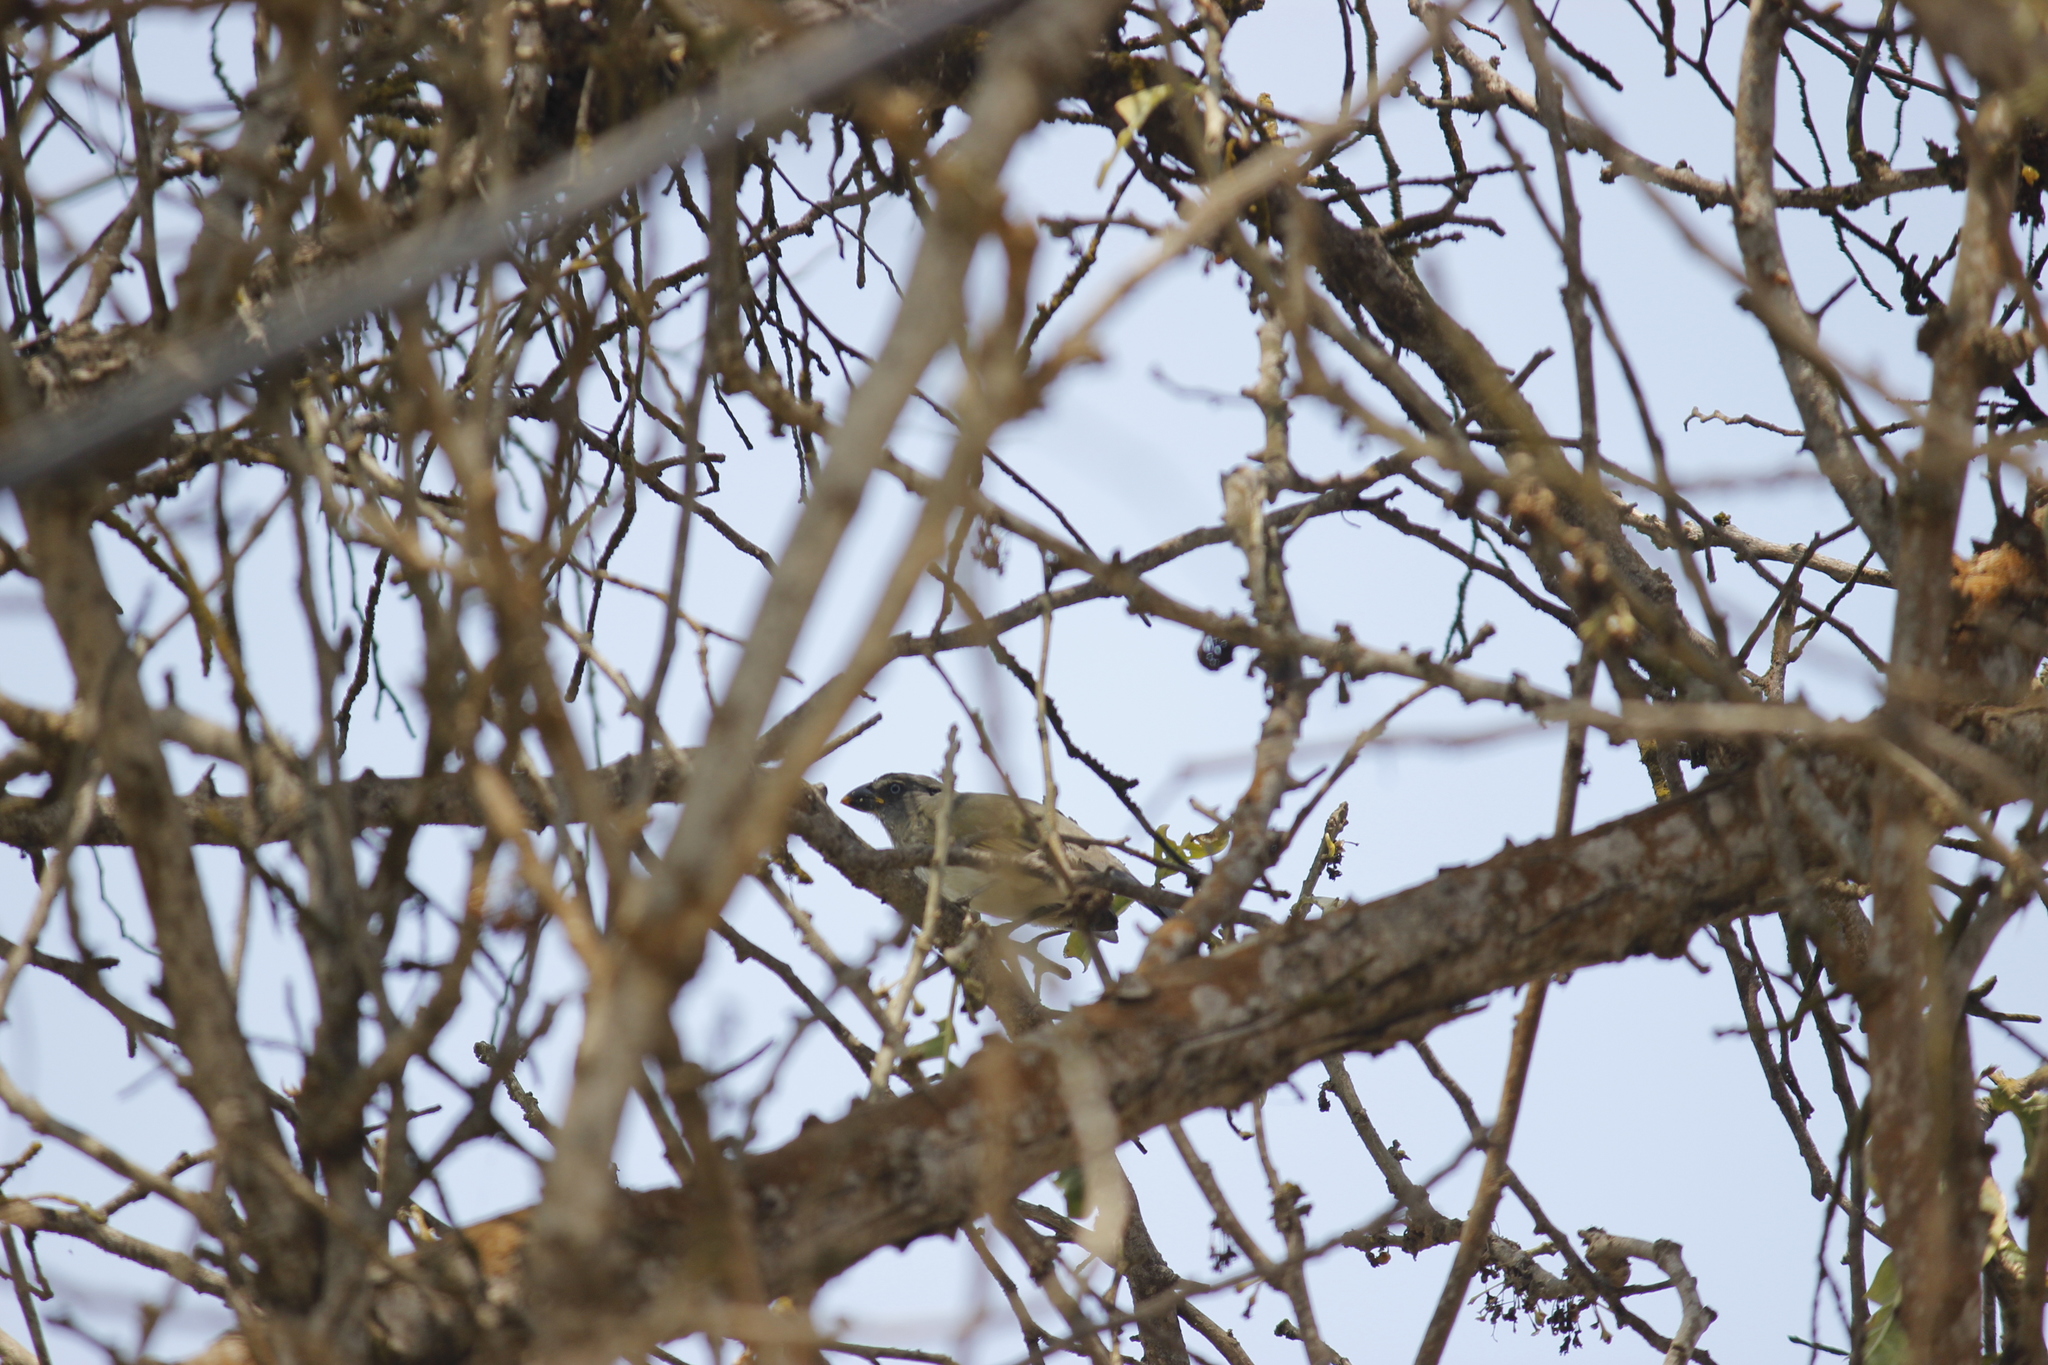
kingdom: Animalia
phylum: Chordata
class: Aves
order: Passeriformes
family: Thraupidae
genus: Saltator
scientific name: Saltator striatipectus
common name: Streaked saltator
